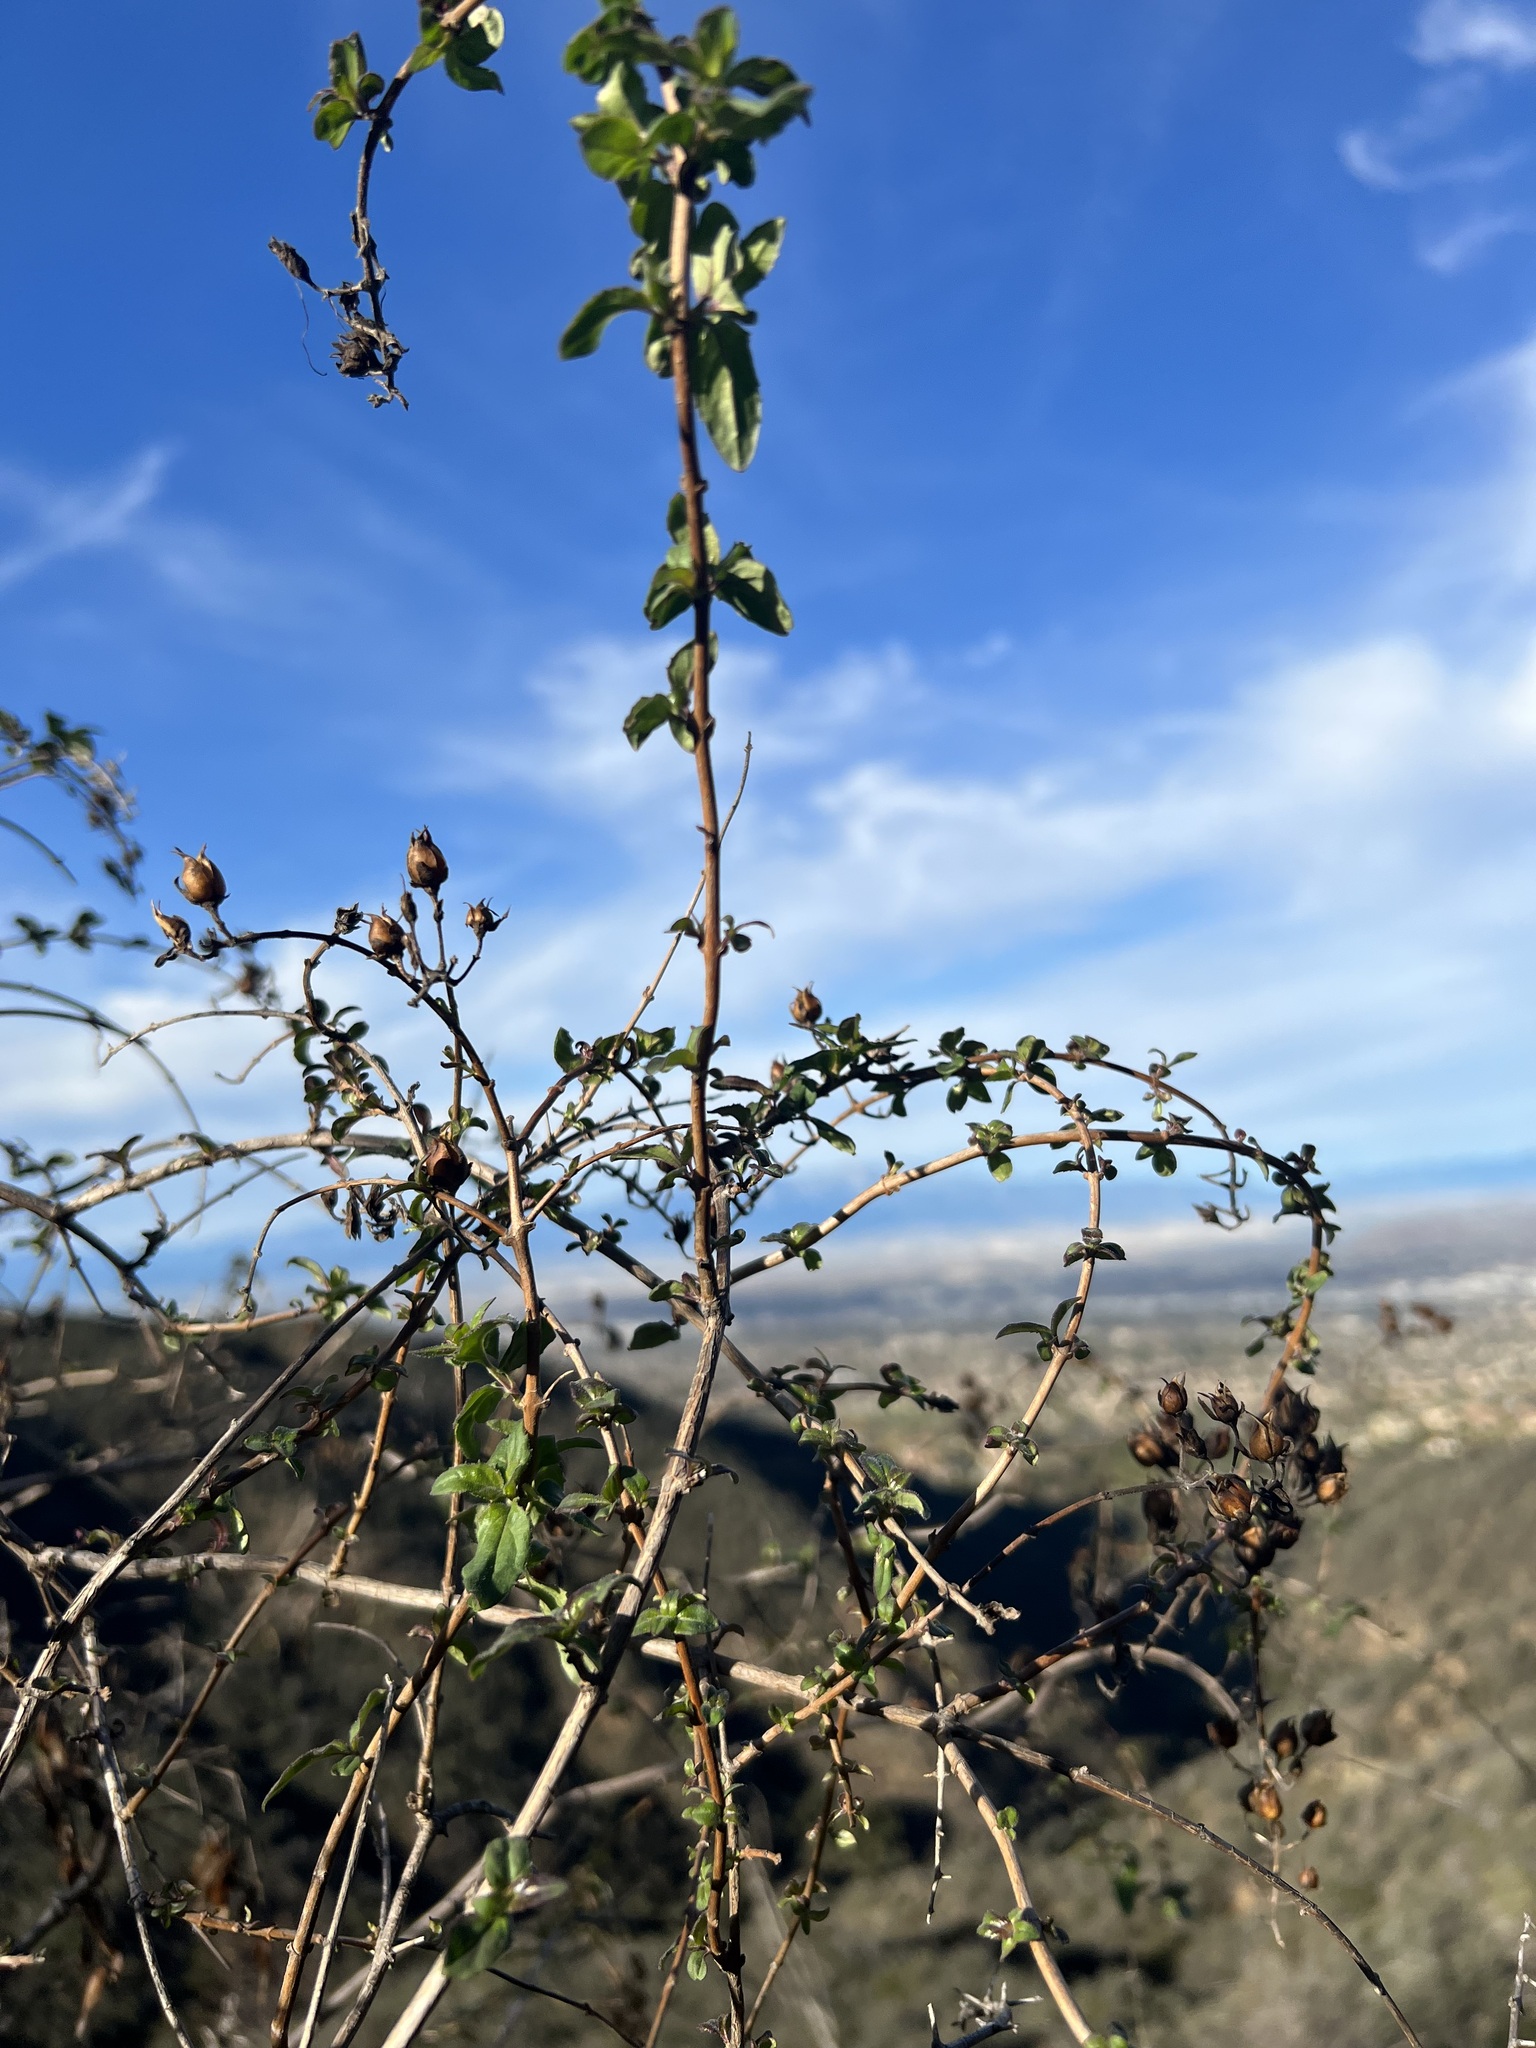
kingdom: Plantae
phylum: Tracheophyta
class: Magnoliopsida
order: Lamiales
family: Plantaginaceae
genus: Keckiella
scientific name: Keckiella cordifolia
